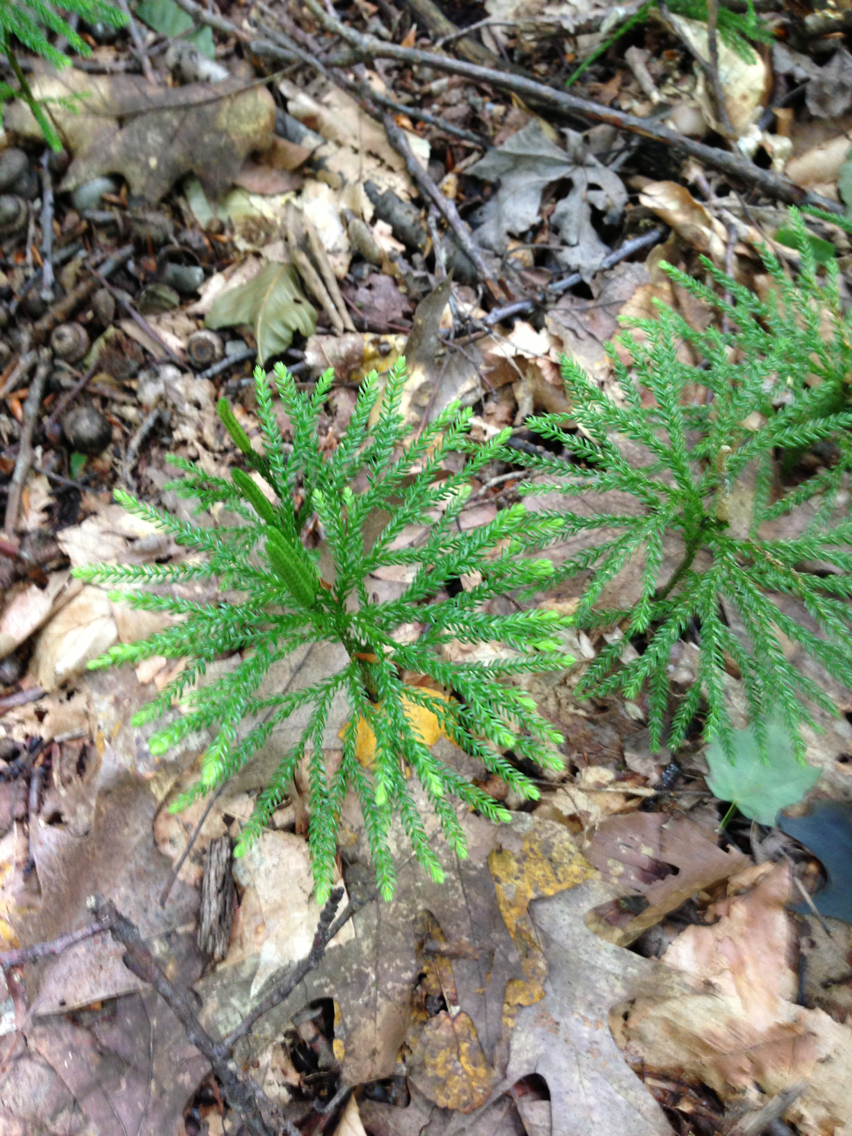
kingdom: Plantae
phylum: Tracheophyta
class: Lycopodiopsida
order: Lycopodiales
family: Lycopodiaceae
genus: Dendrolycopodium
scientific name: Dendrolycopodium obscurum
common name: Common ground-pine
